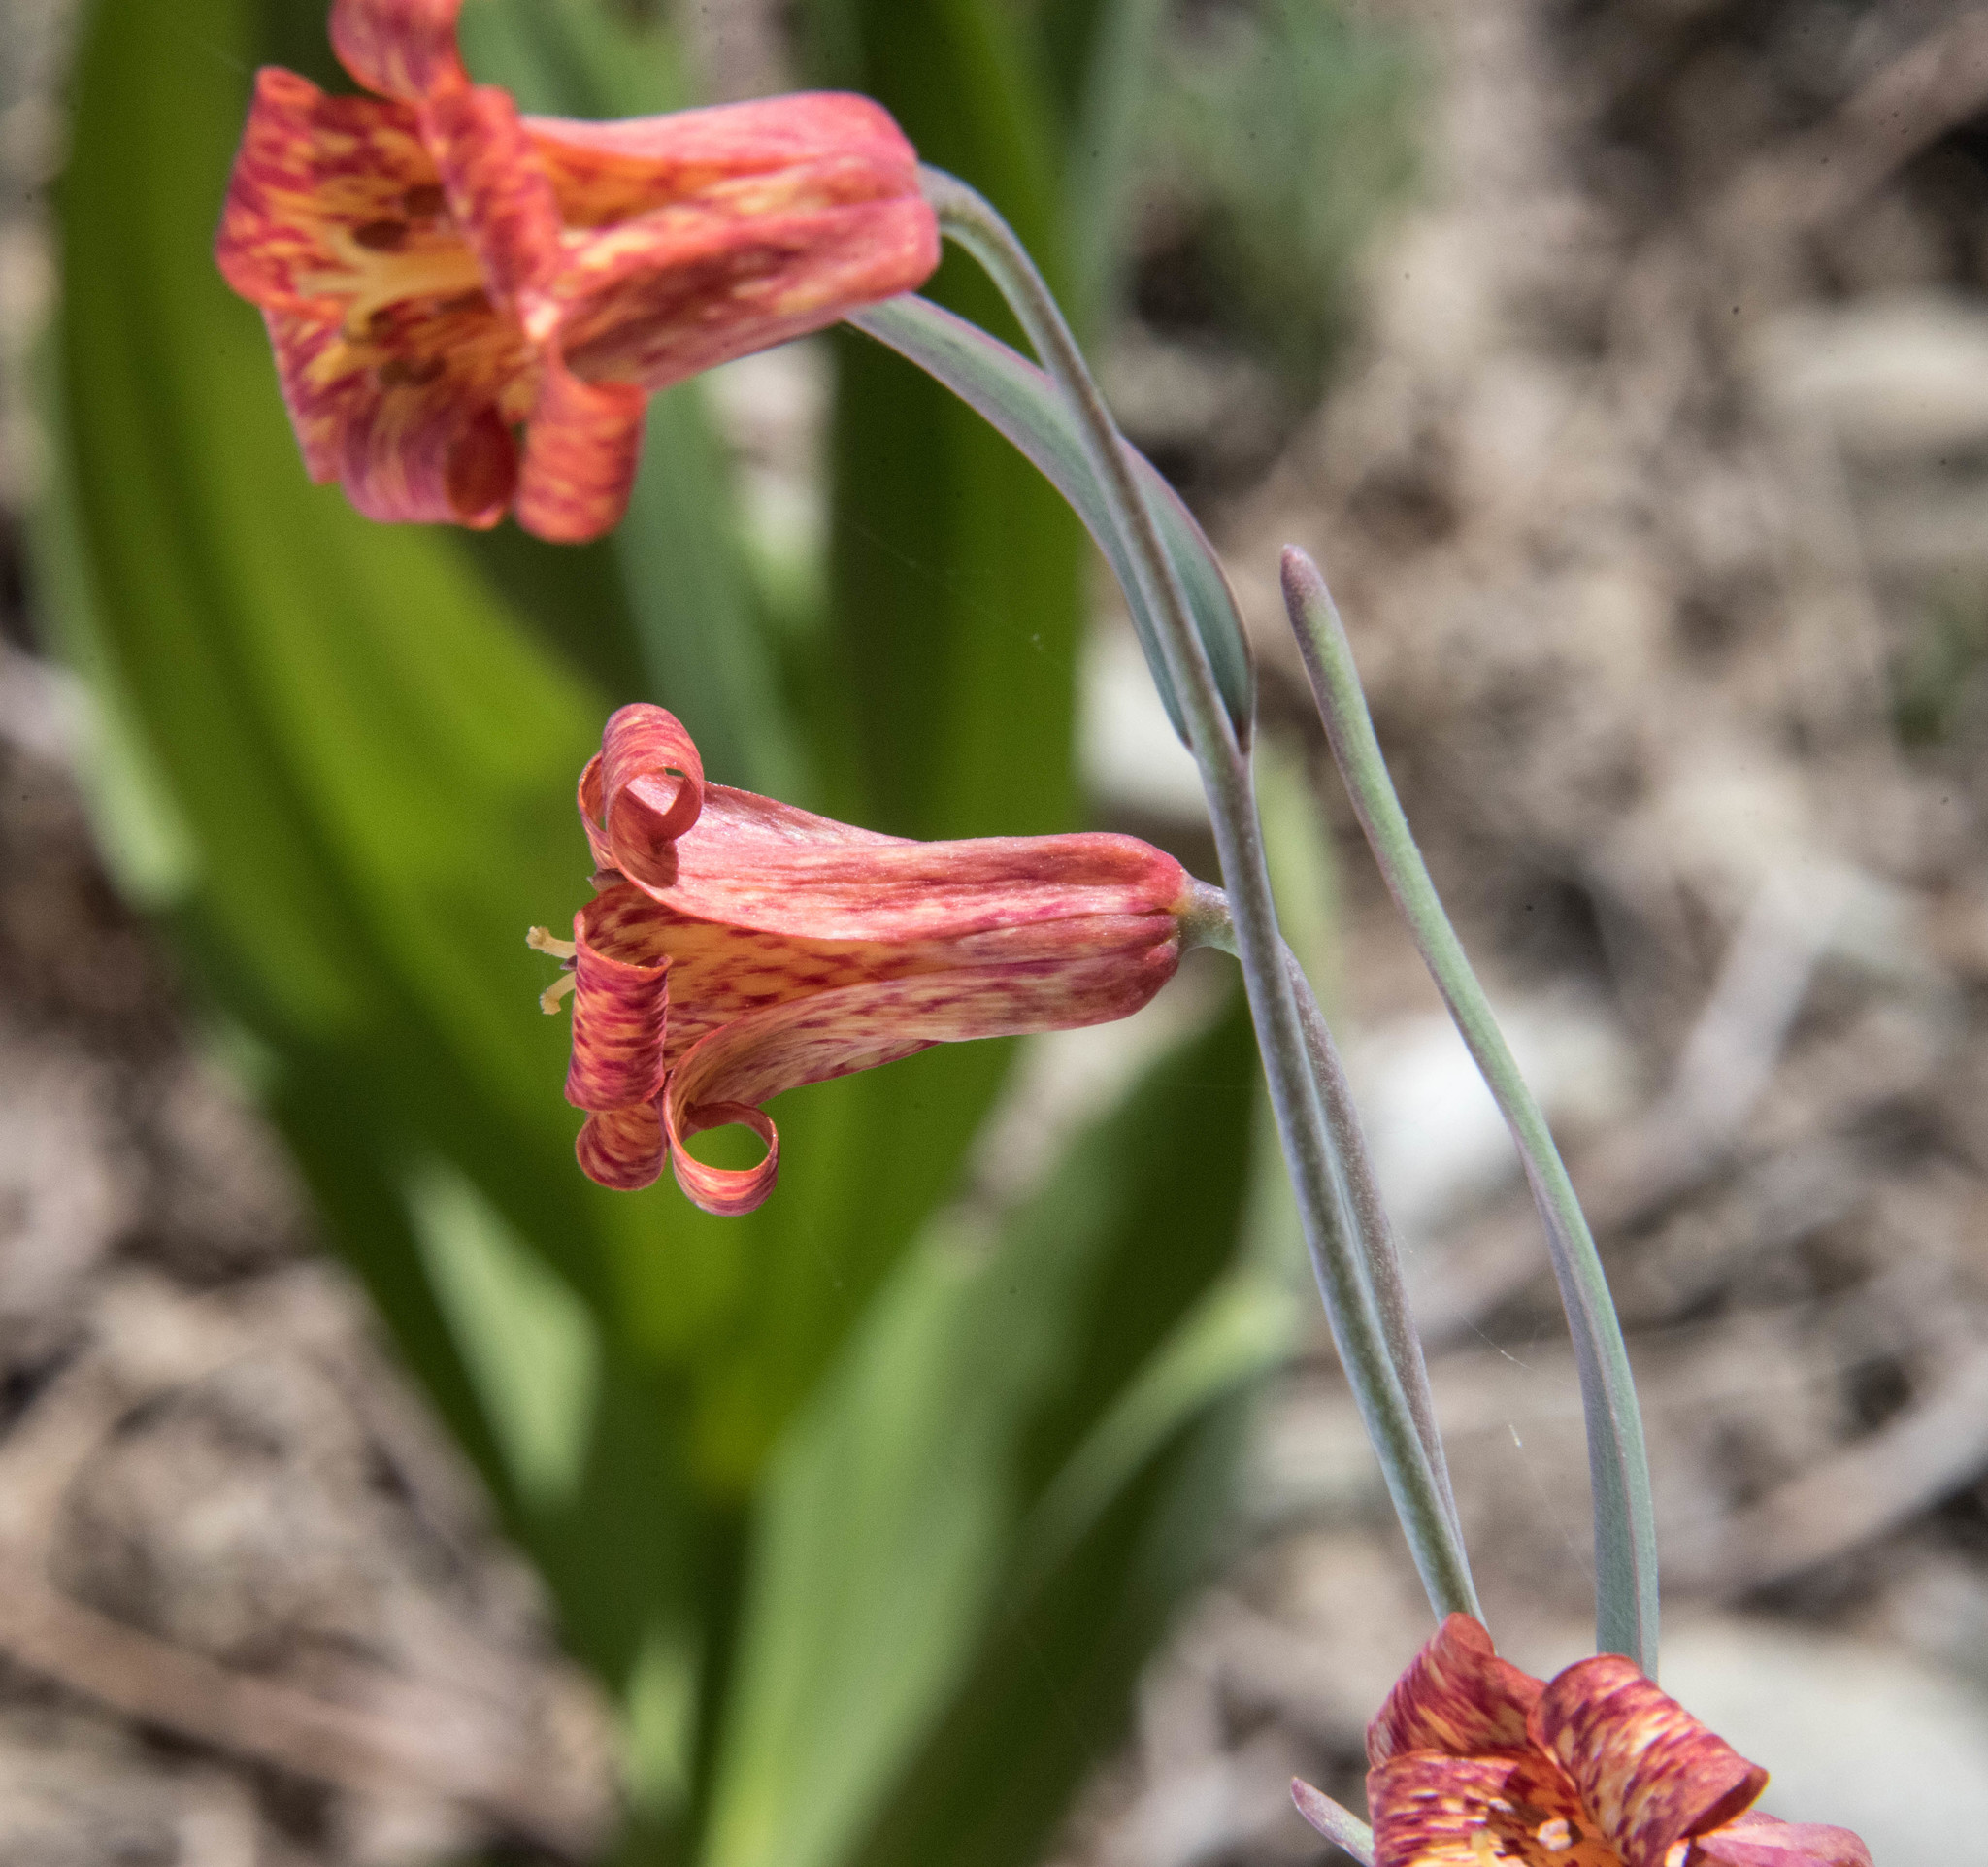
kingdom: Plantae
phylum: Tracheophyta
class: Liliopsida
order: Liliales
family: Liliaceae
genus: Fritillaria
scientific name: Fritillaria recurva
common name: Scarlet fritillary
